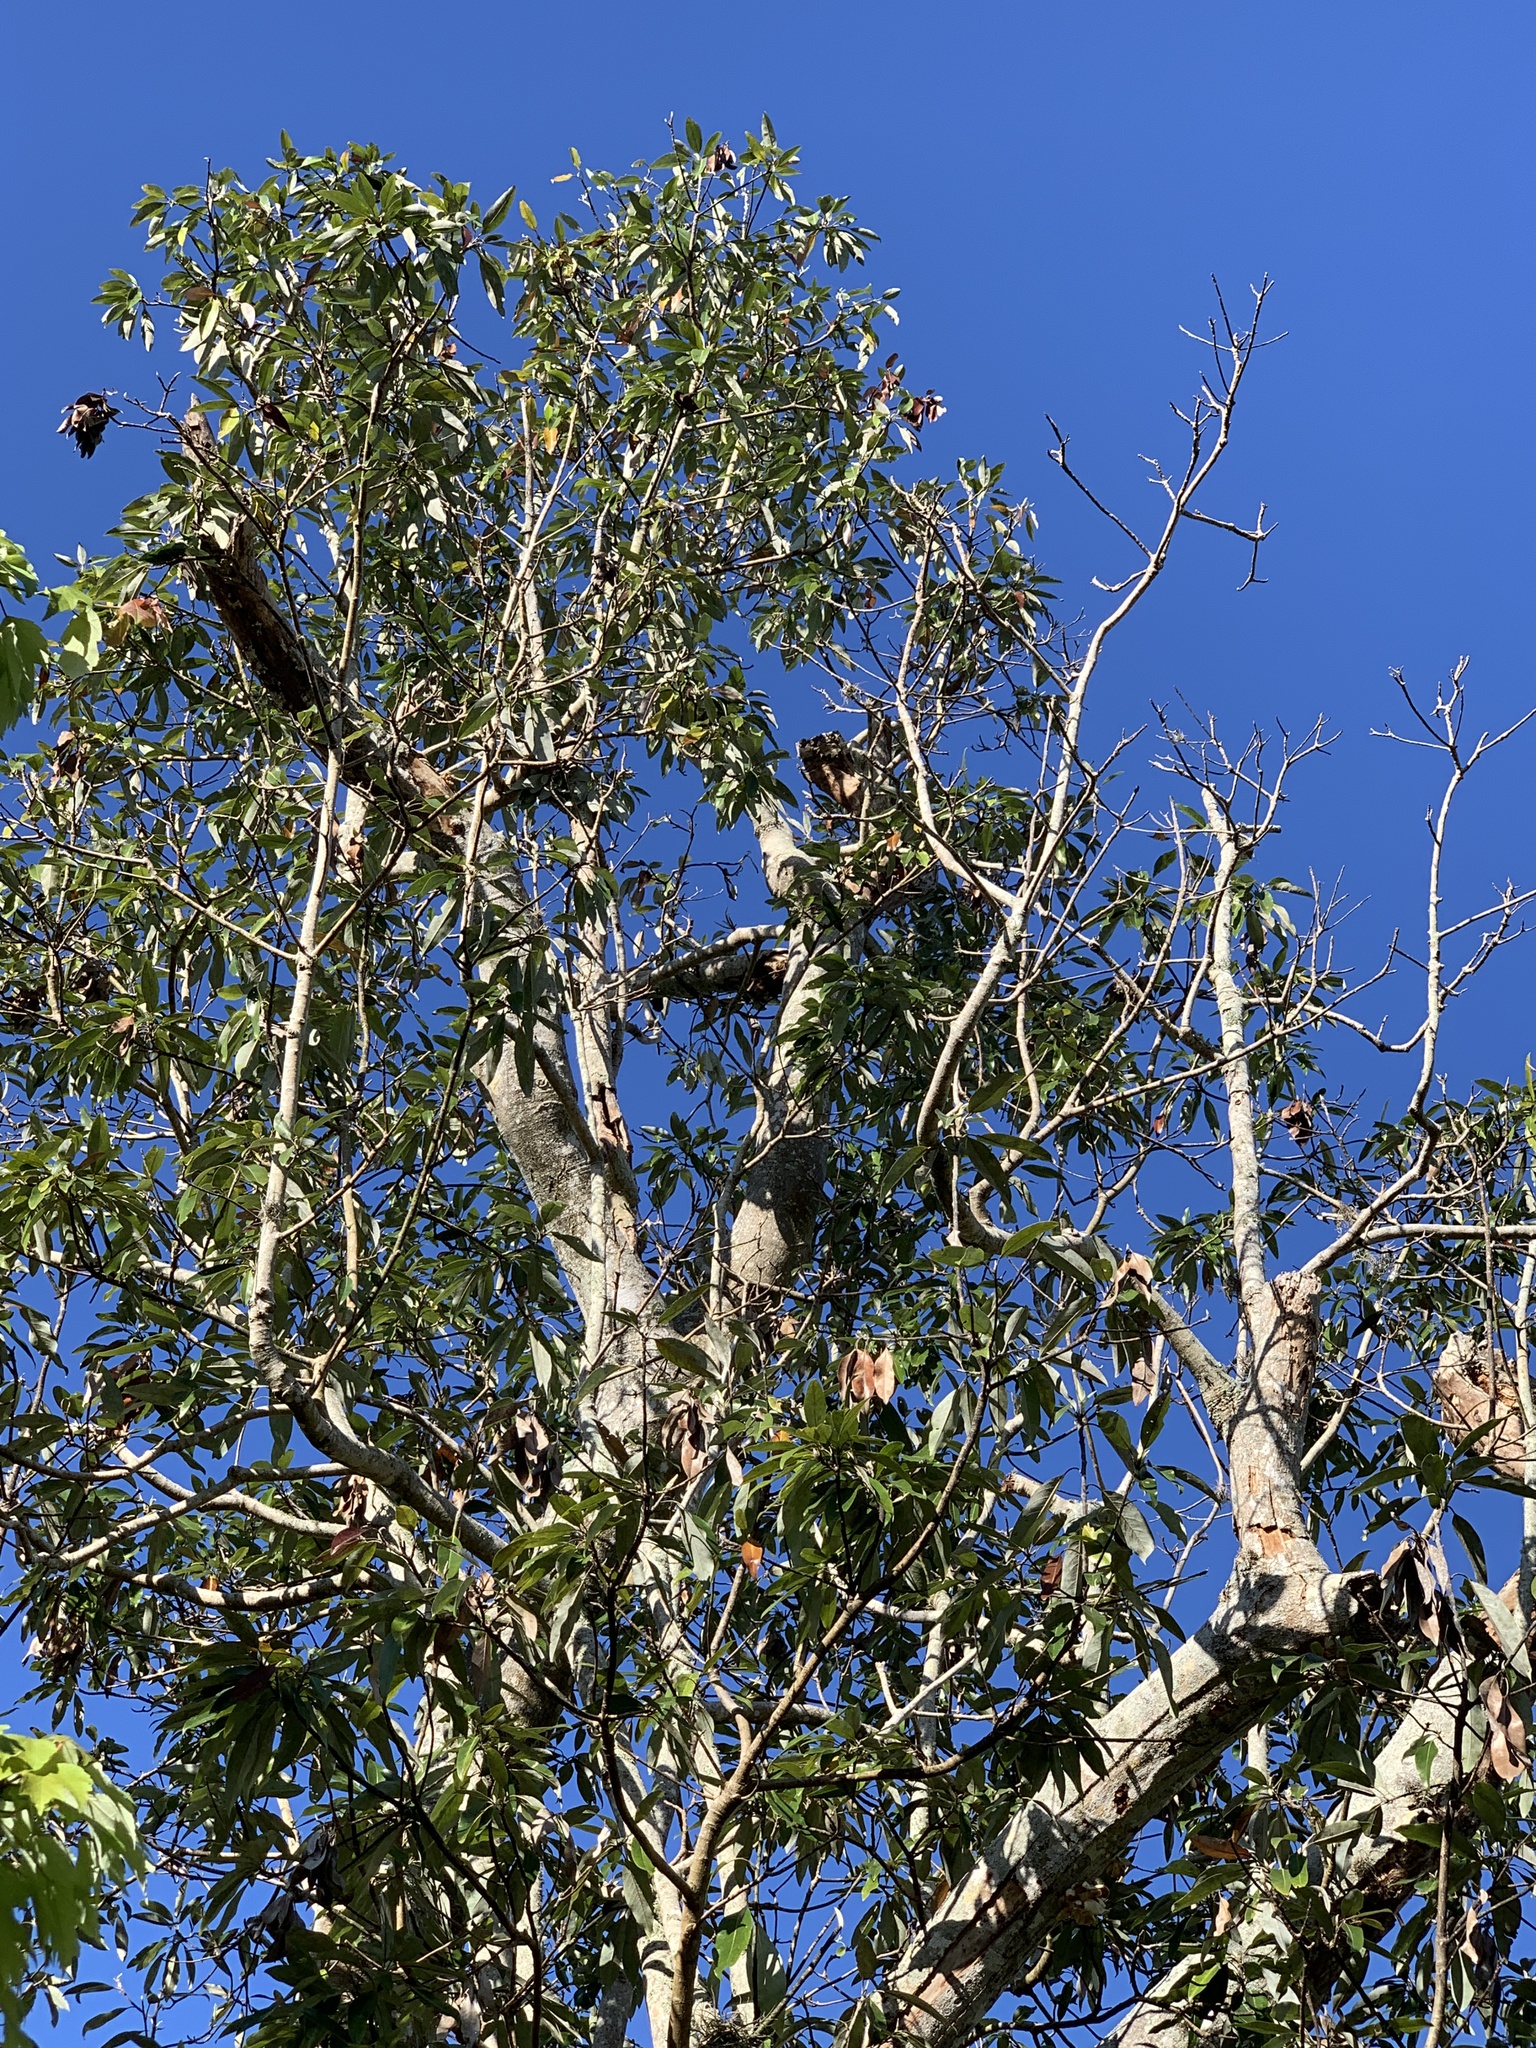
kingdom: Plantae
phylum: Tracheophyta
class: Magnoliopsida
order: Magnoliales
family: Magnoliaceae
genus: Magnolia
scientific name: Magnolia virginiana
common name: Swamp bay
